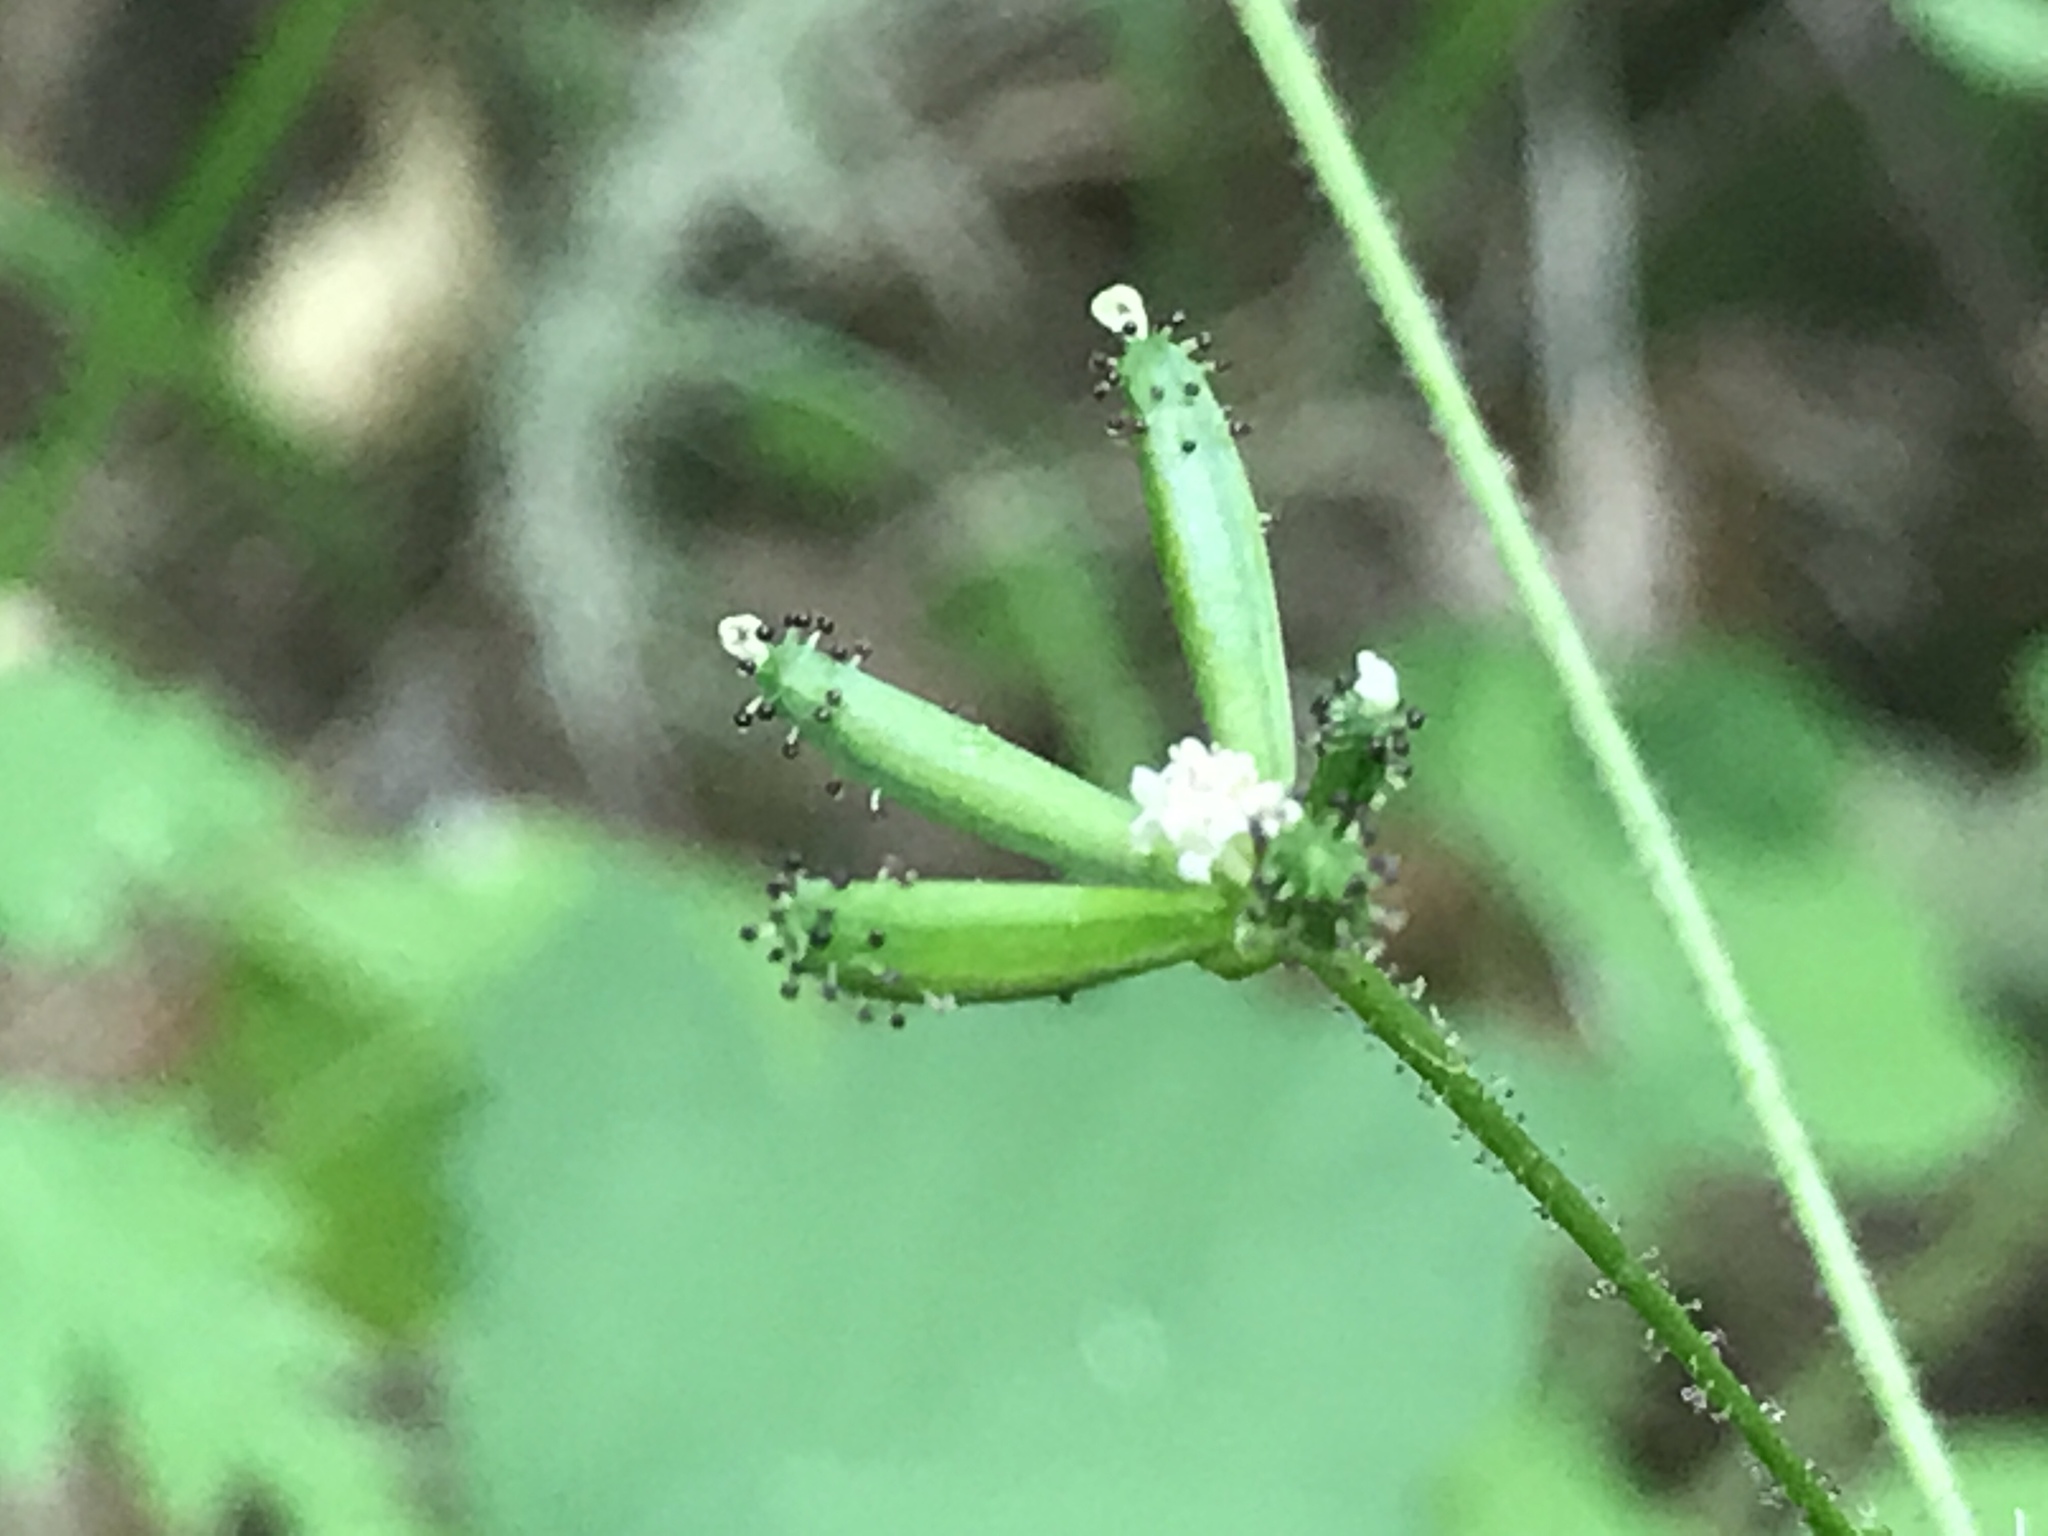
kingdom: Plantae
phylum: Tracheophyta
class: Magnoliopsida
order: Asterales
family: Asteraceae
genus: Adenocaulon
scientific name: Adenocaulon bicolor
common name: Trailplant
